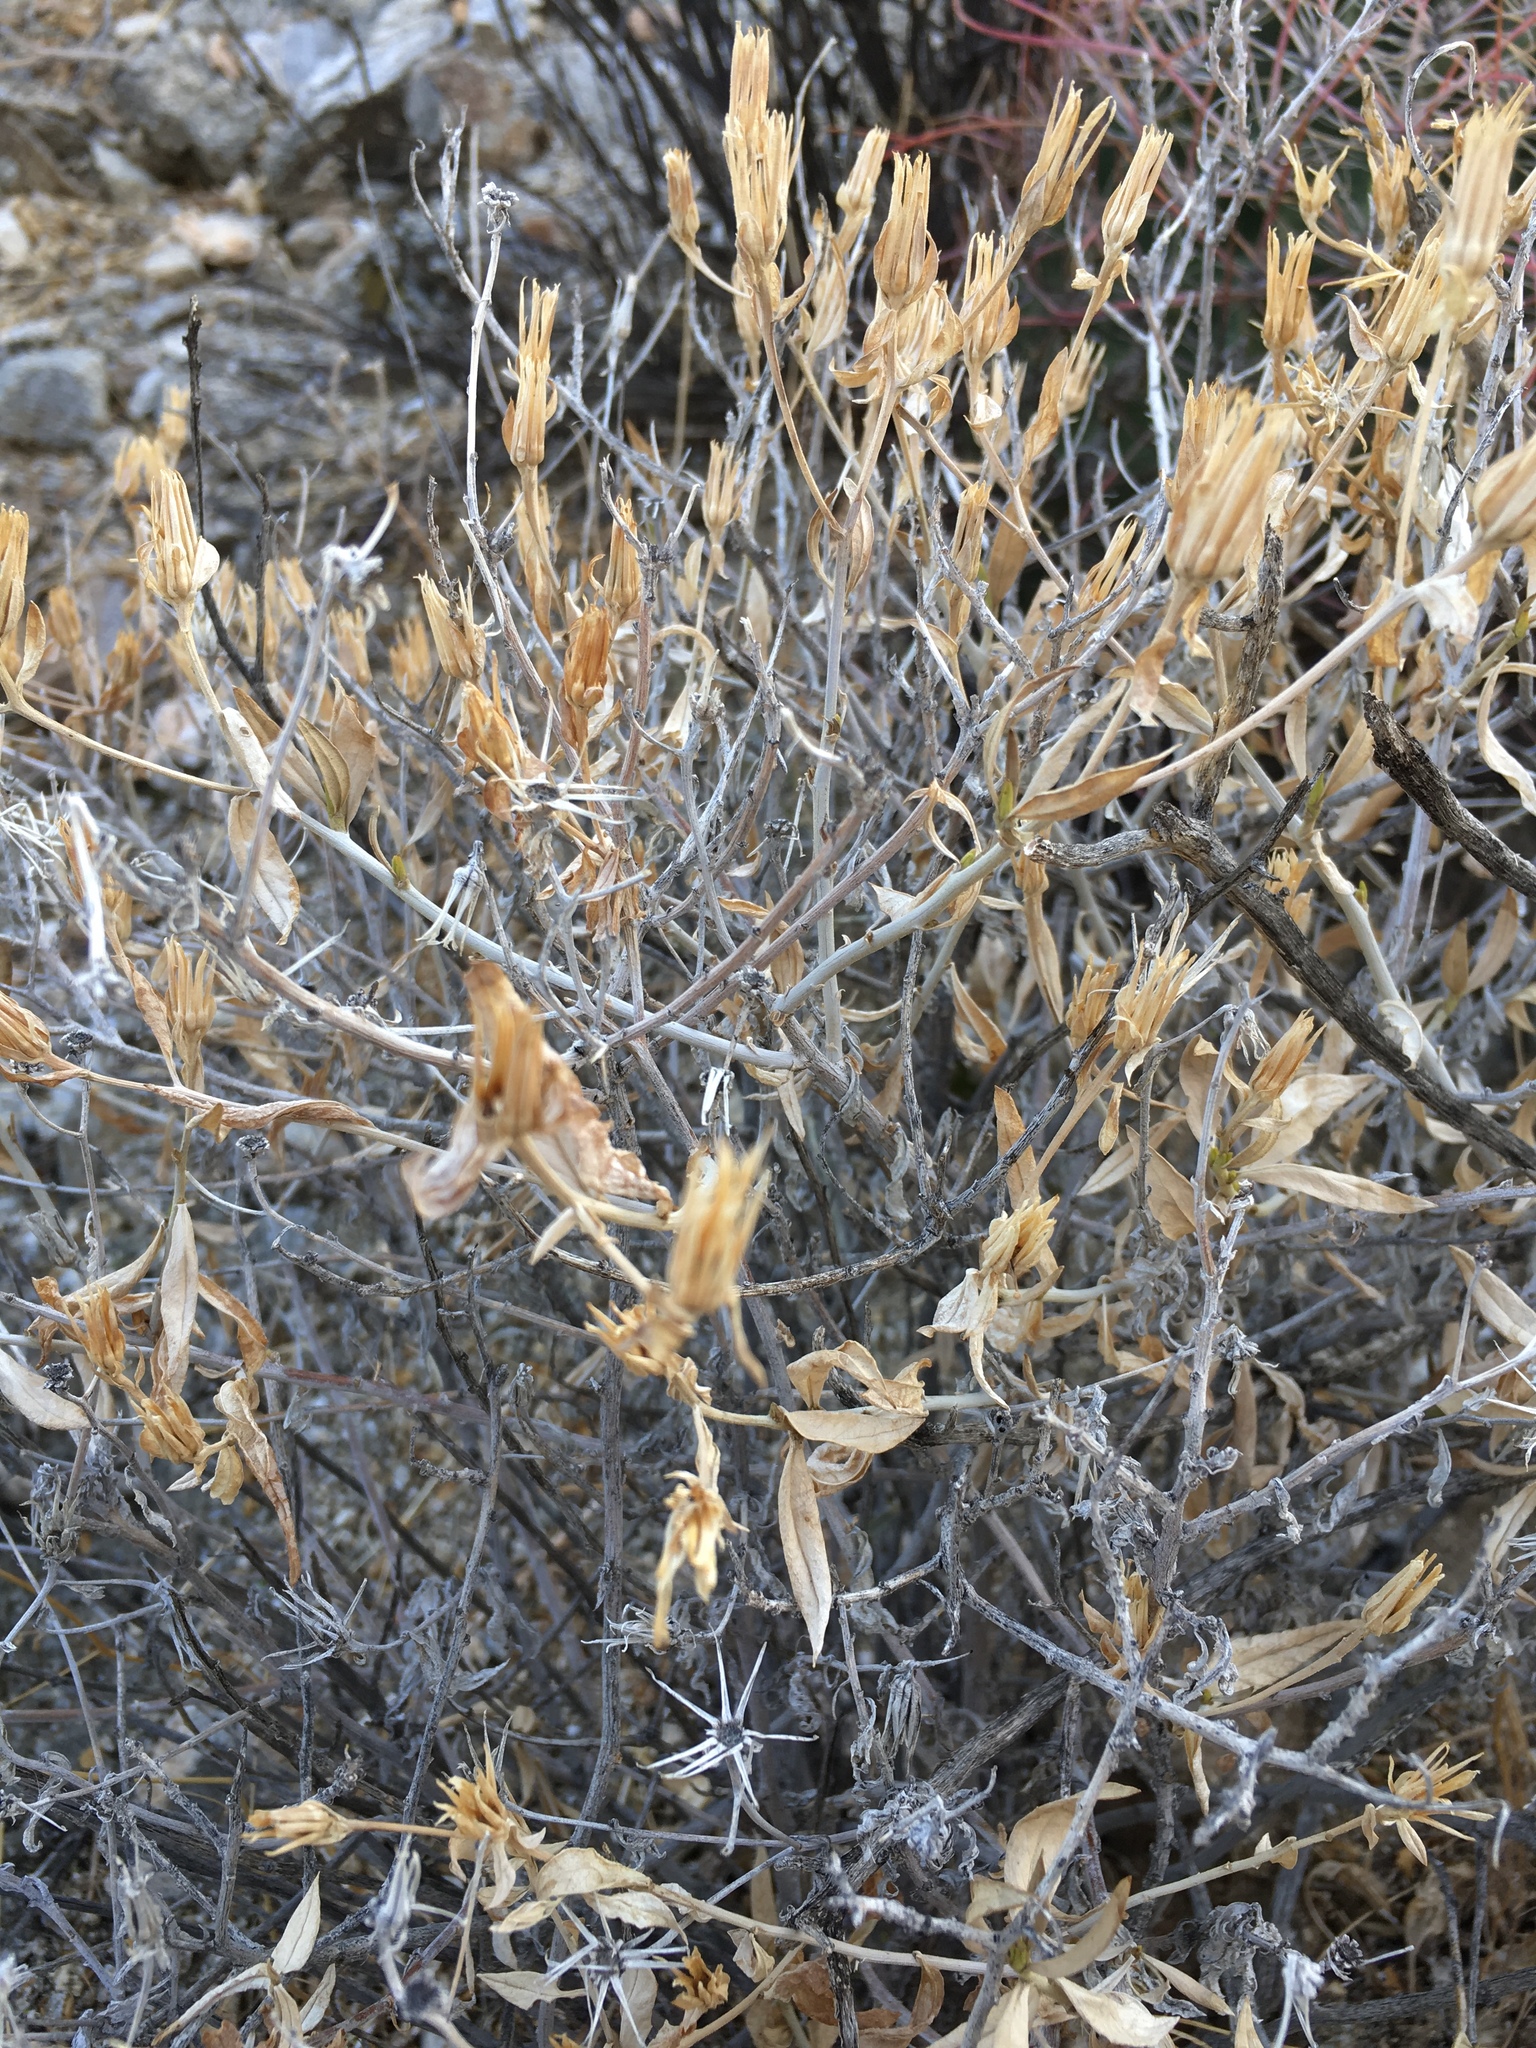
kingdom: Plantae
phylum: Tracheophyta
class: Magnoliopsida
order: Asterales
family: Asteraceae
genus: Trixis
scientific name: Trixis californica
